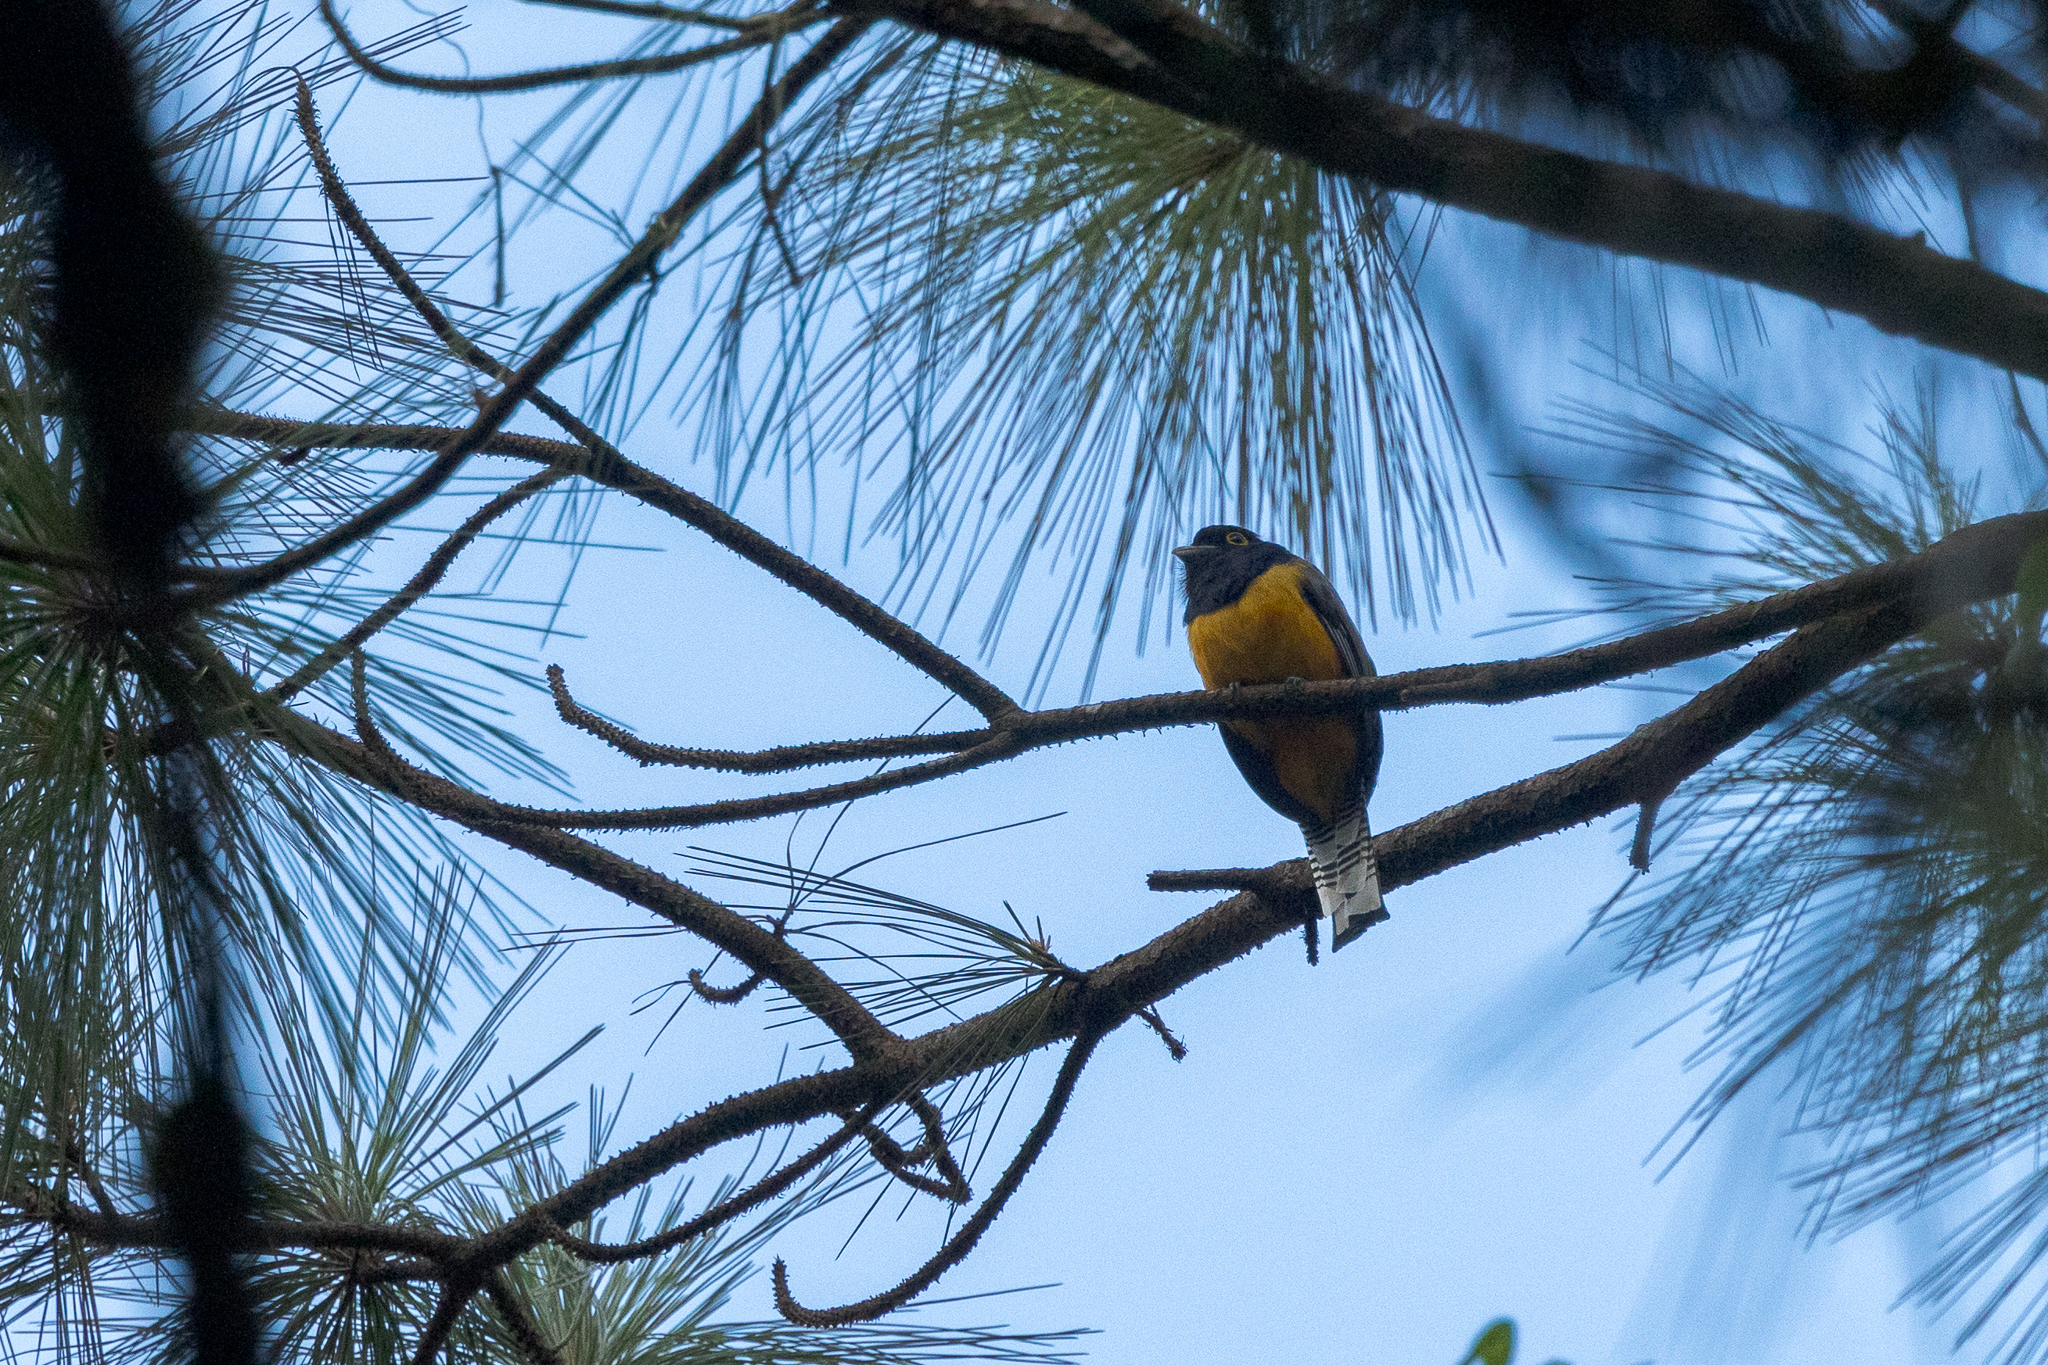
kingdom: Animalia
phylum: Chordata
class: Aves
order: Trogoniformes
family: Trogonidae
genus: Trogon
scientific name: Trogon caligatus
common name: Gartered trogon
